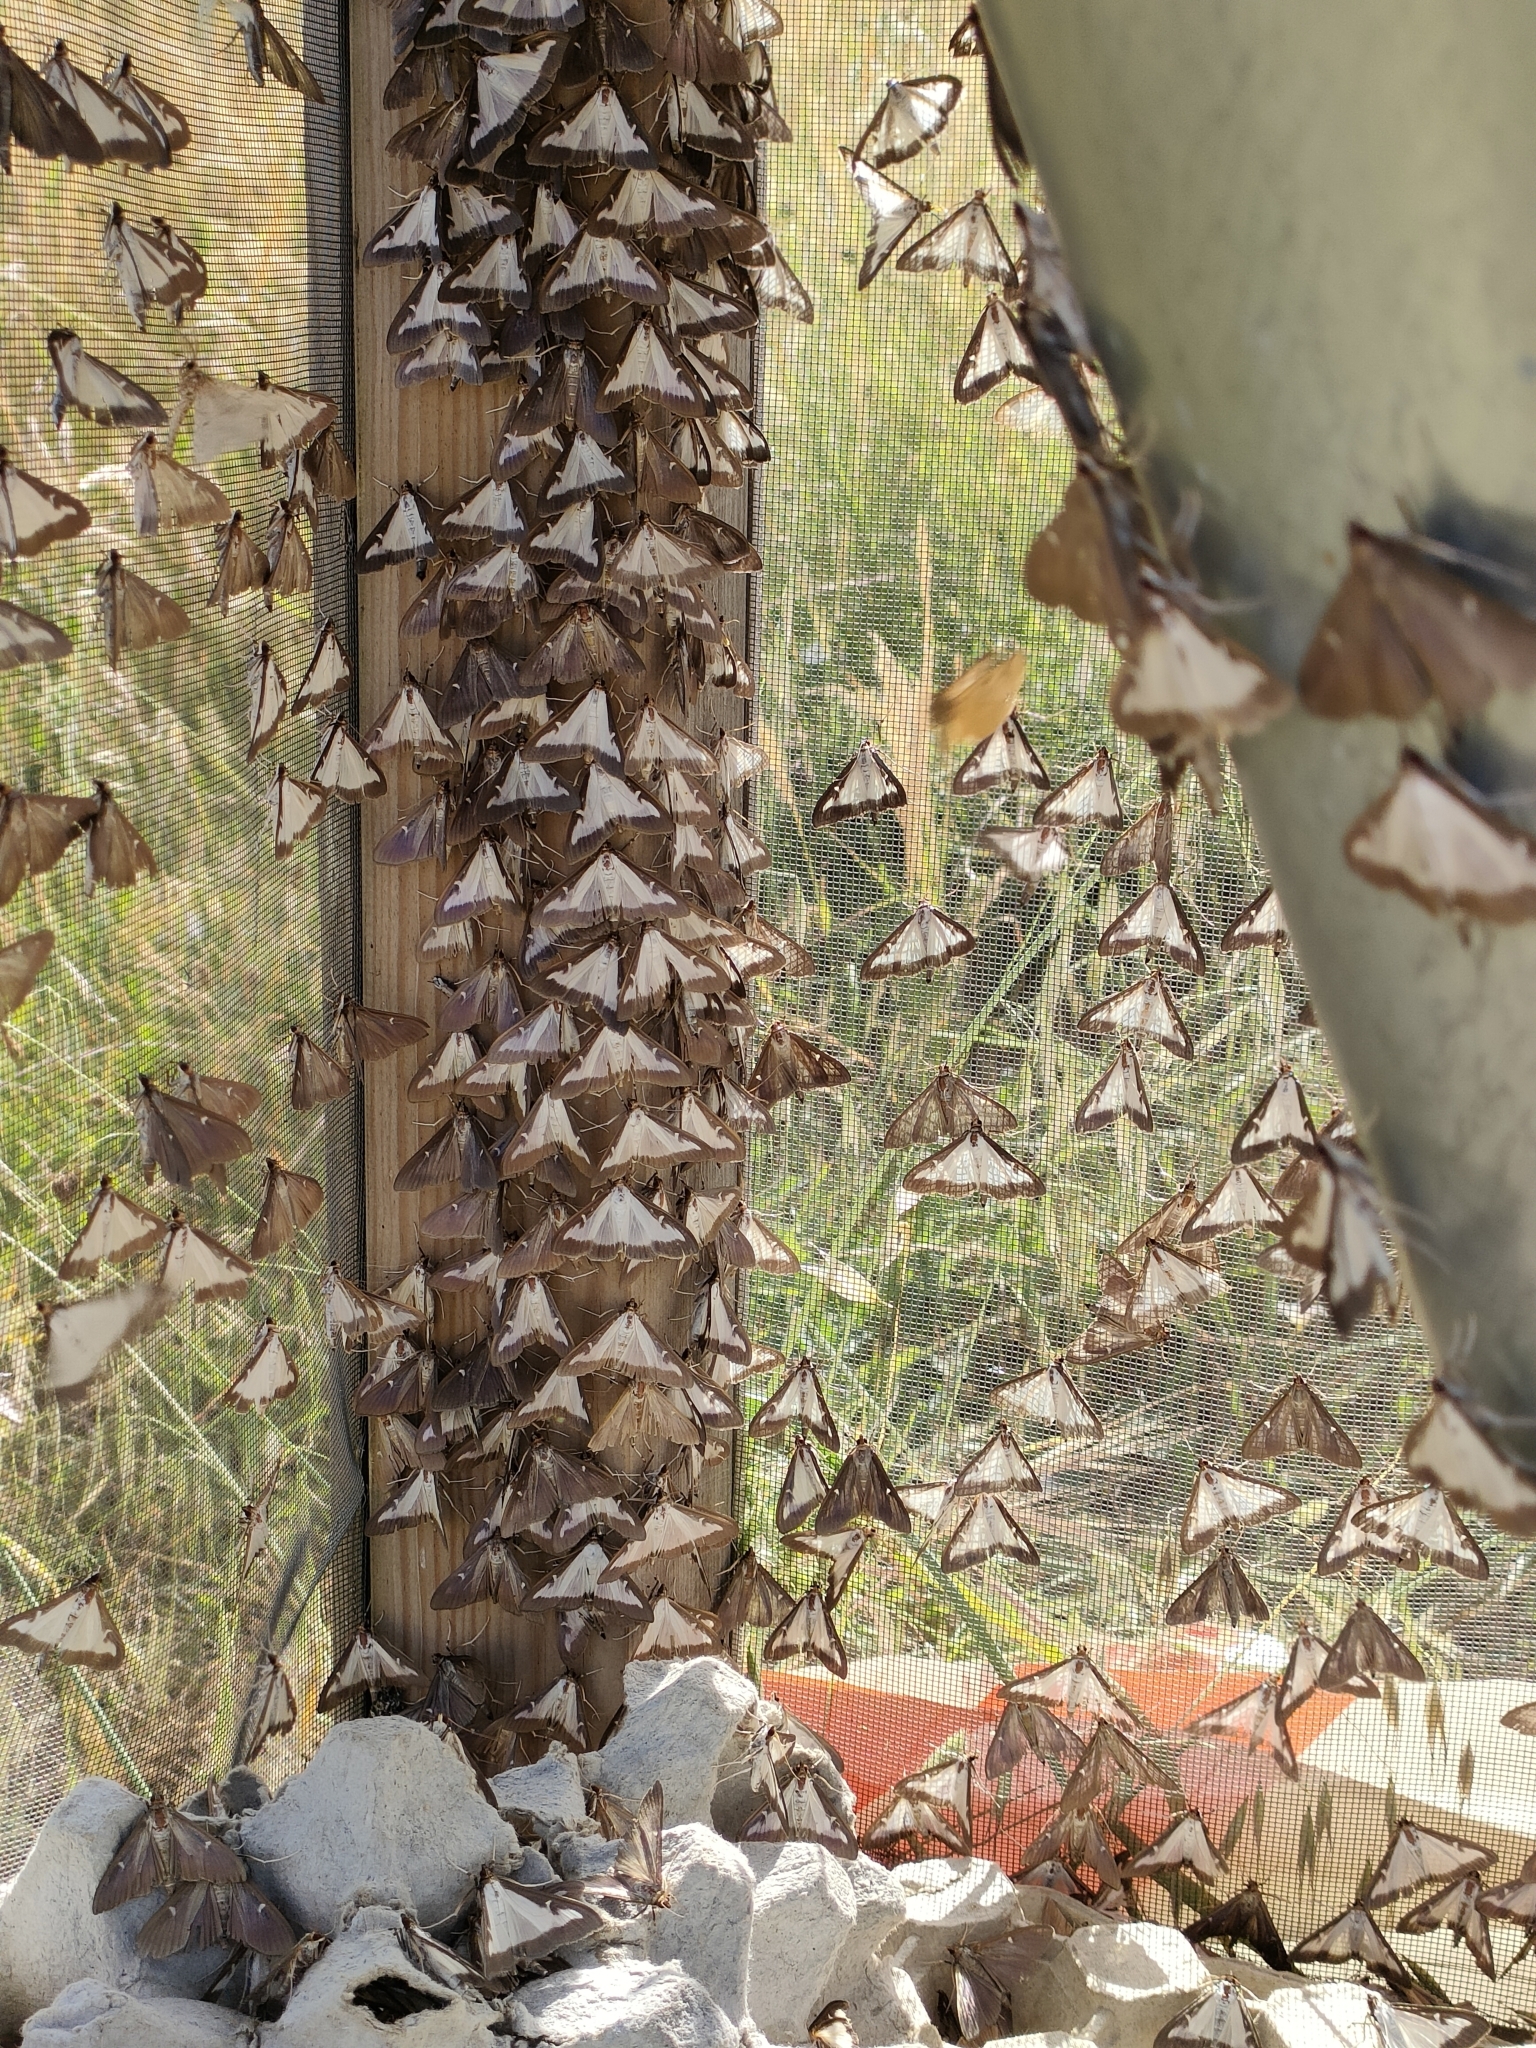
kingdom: Animalia
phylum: Arthropoda
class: Insecta
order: Lepidoptera
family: Crambidae
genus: Cydalima
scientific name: Cydalima perspectalis
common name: Box tree moth
